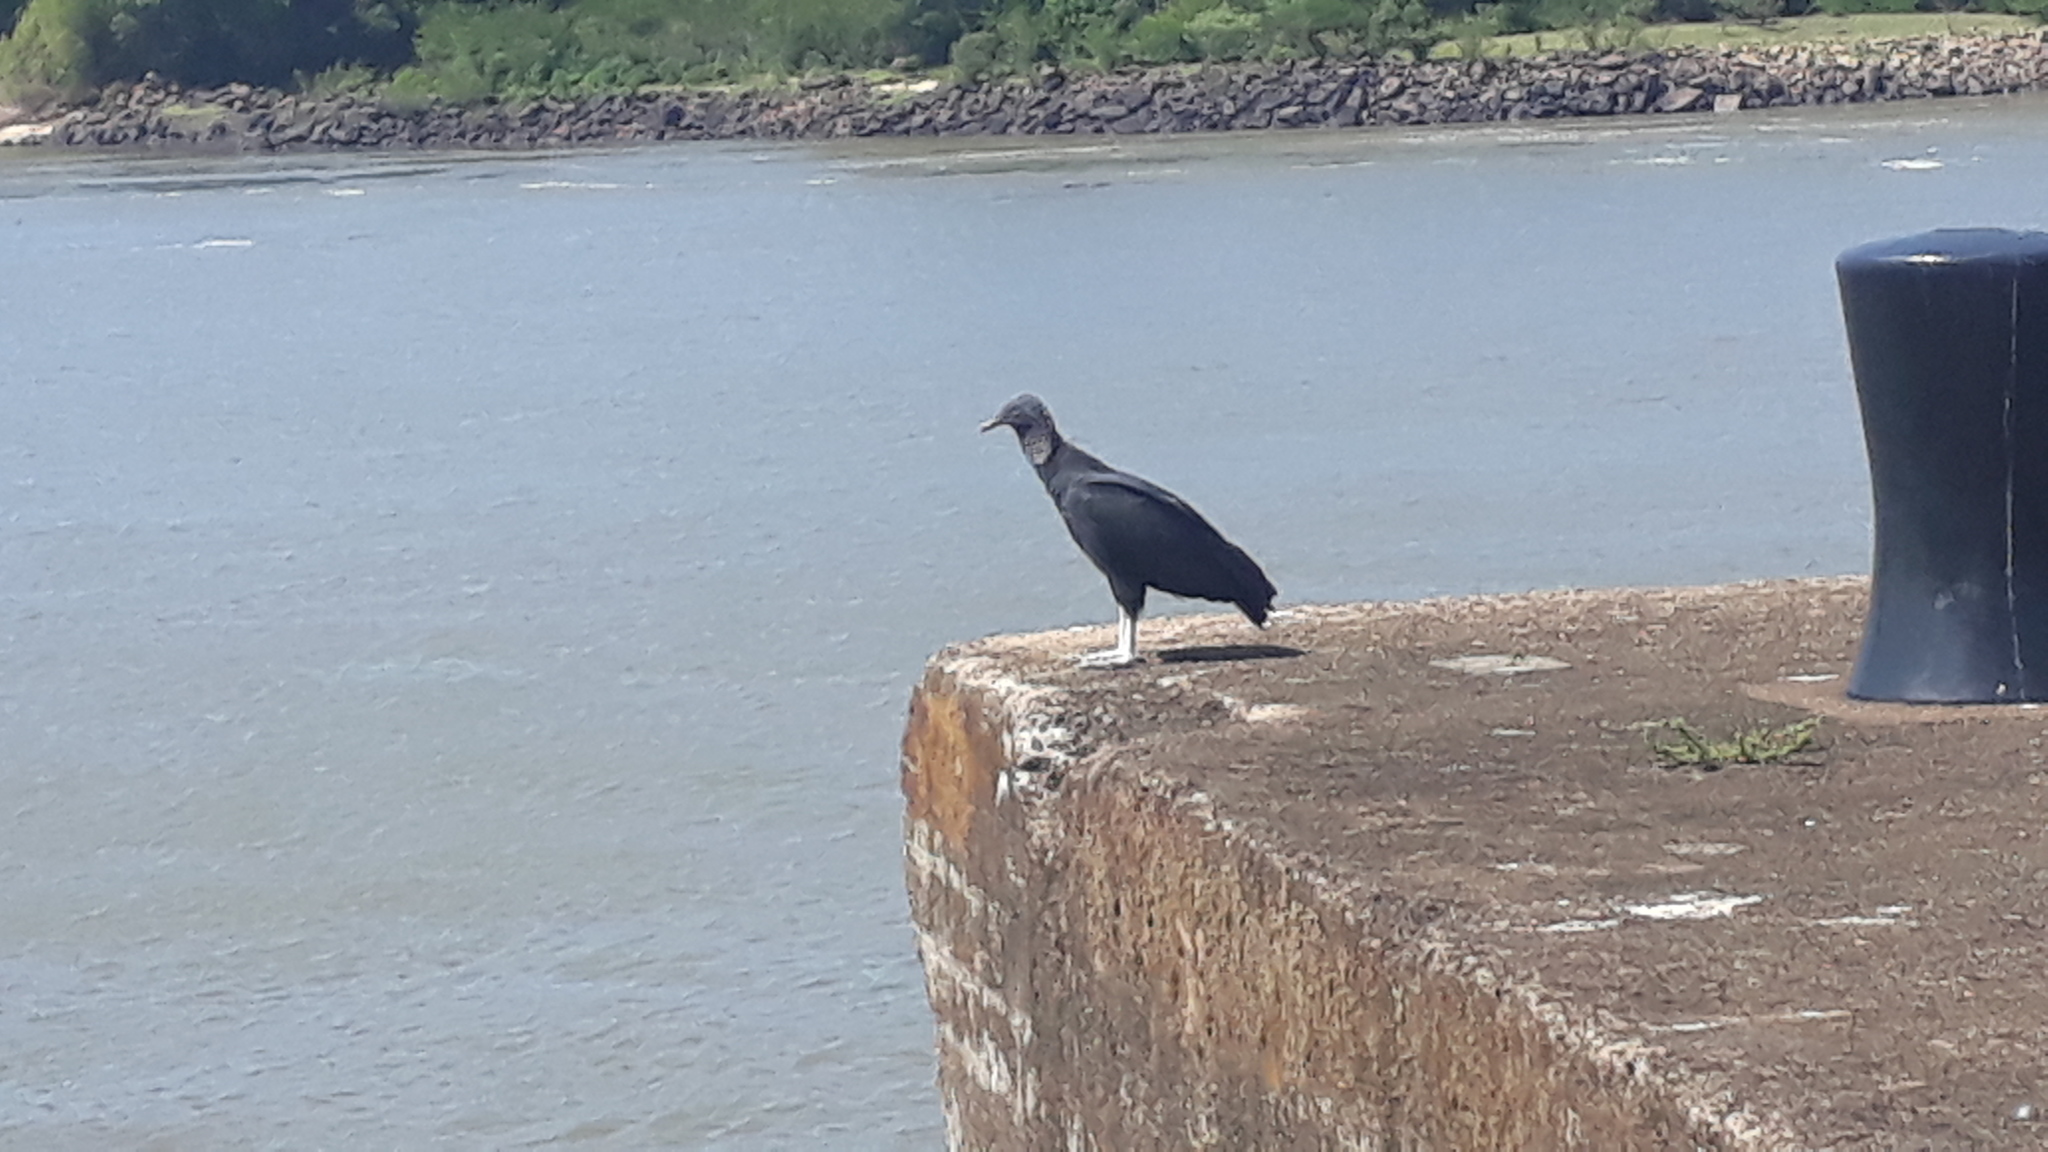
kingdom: Animalia
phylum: Chordata
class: Aves
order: Accipitriformes
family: Cathartidae
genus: Coragyps
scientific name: Coragyps atratus
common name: Black vulture
